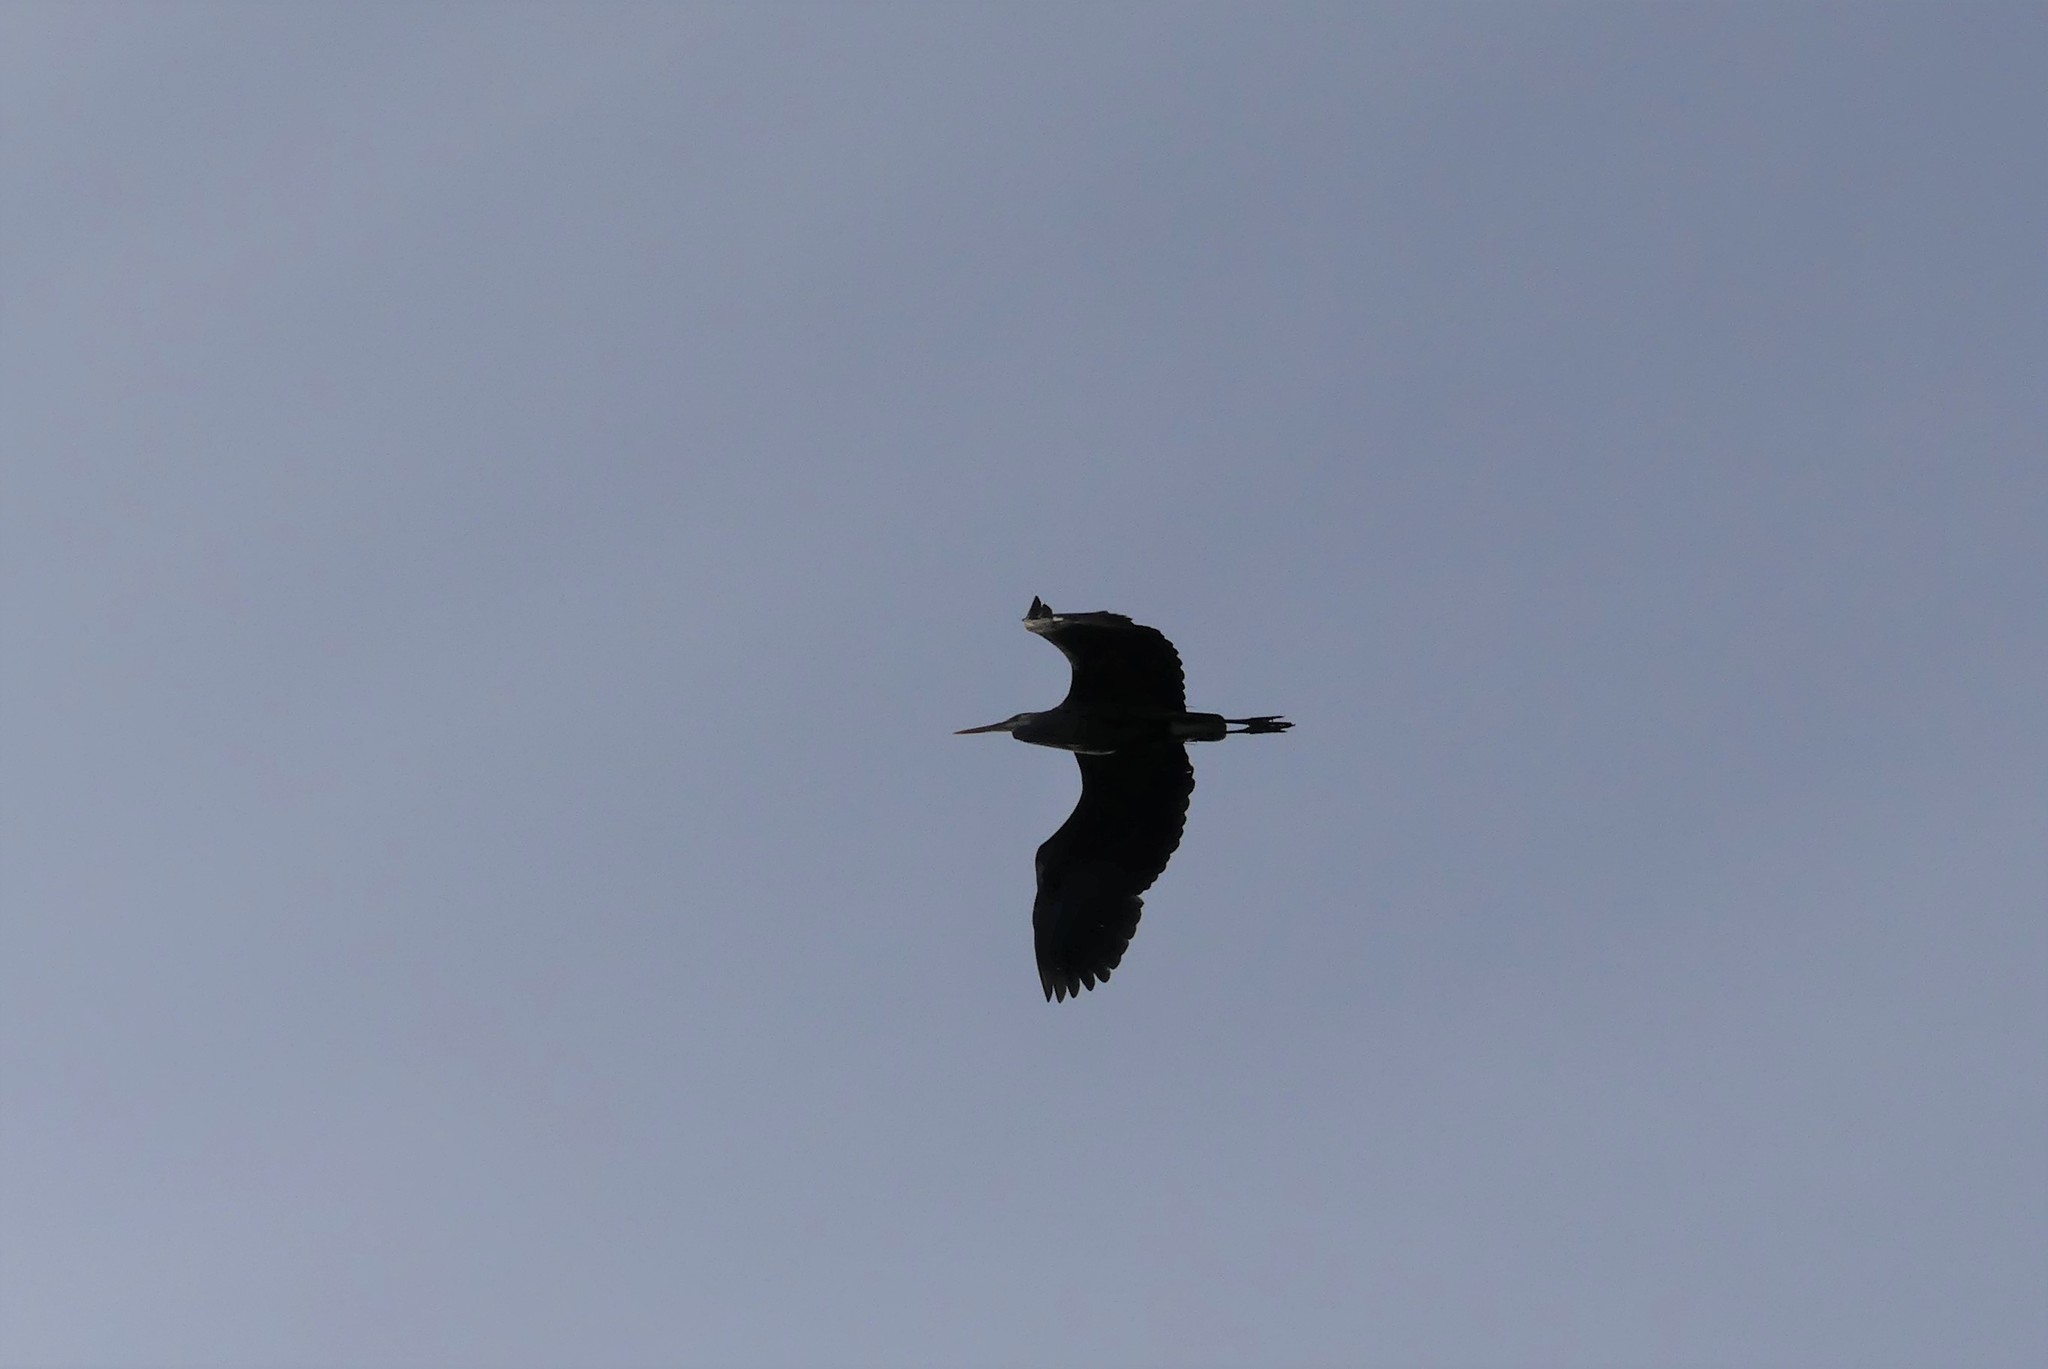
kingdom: Animalia
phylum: Chordata
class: Aves
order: Pelecaniformes
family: Ardeidae
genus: Ardea
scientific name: Ardea herodias
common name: Great blue heron
